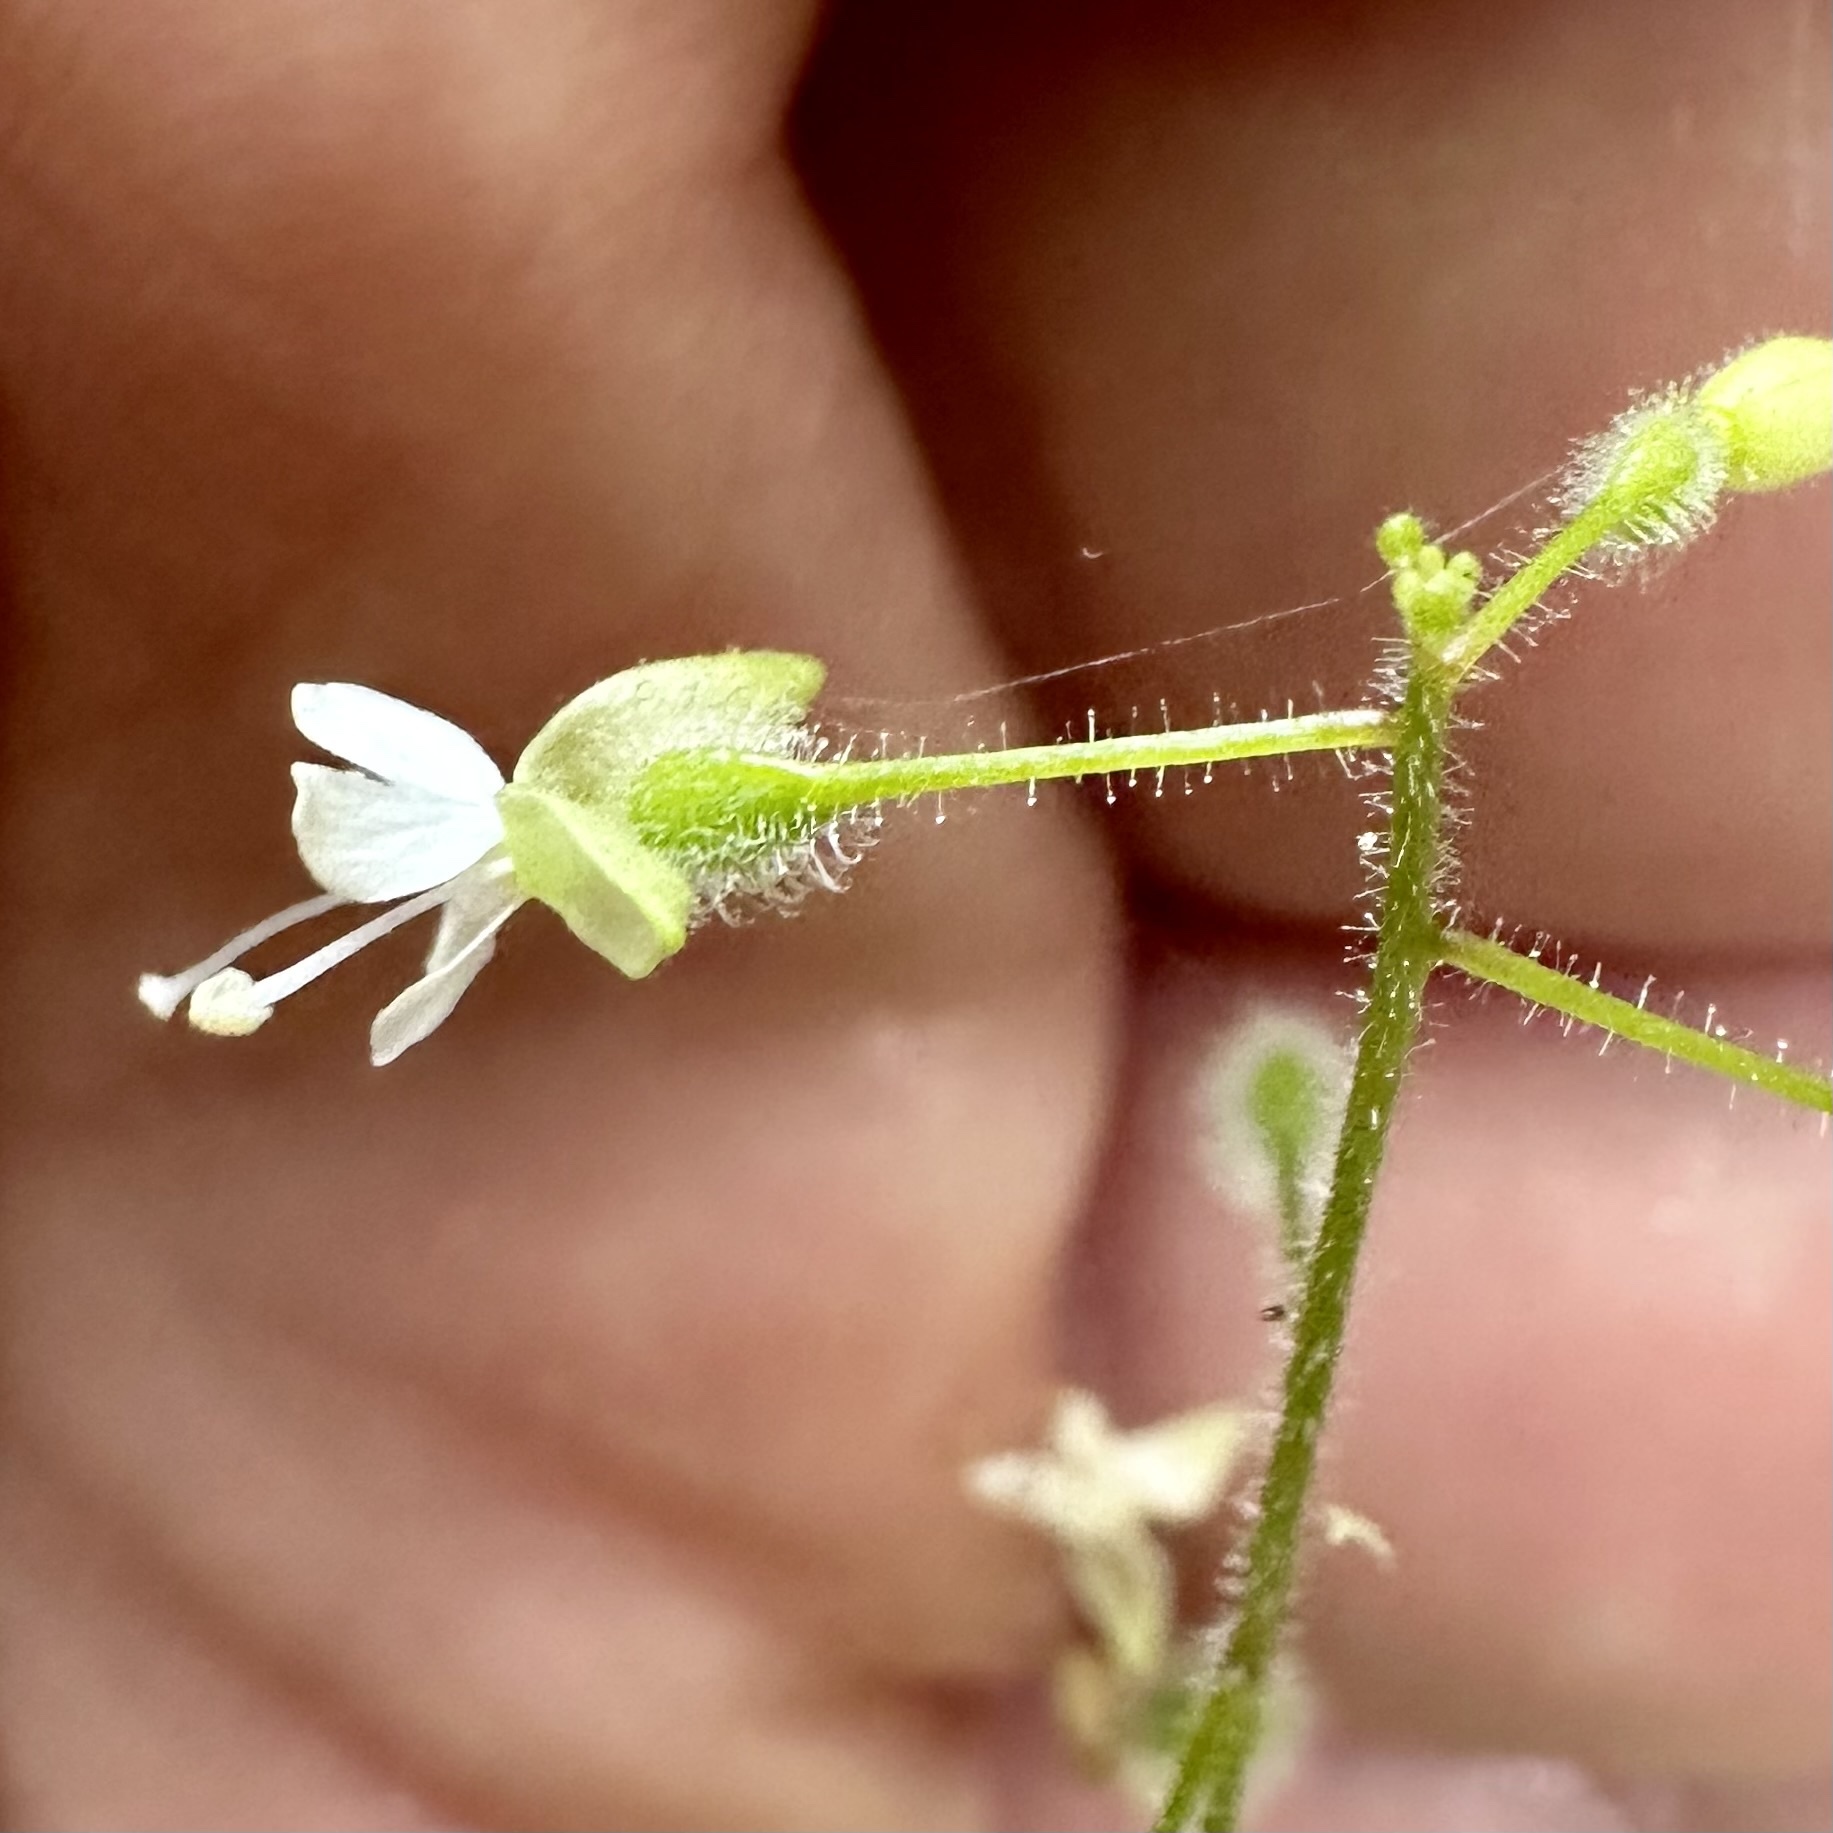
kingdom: Plantae
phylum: Tracheophyta
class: Magnoliopsida
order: Myrtales
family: Onagraceae
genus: Circaea
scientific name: Circaea canadensis
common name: Broad-leaved enchanter's nightshade
